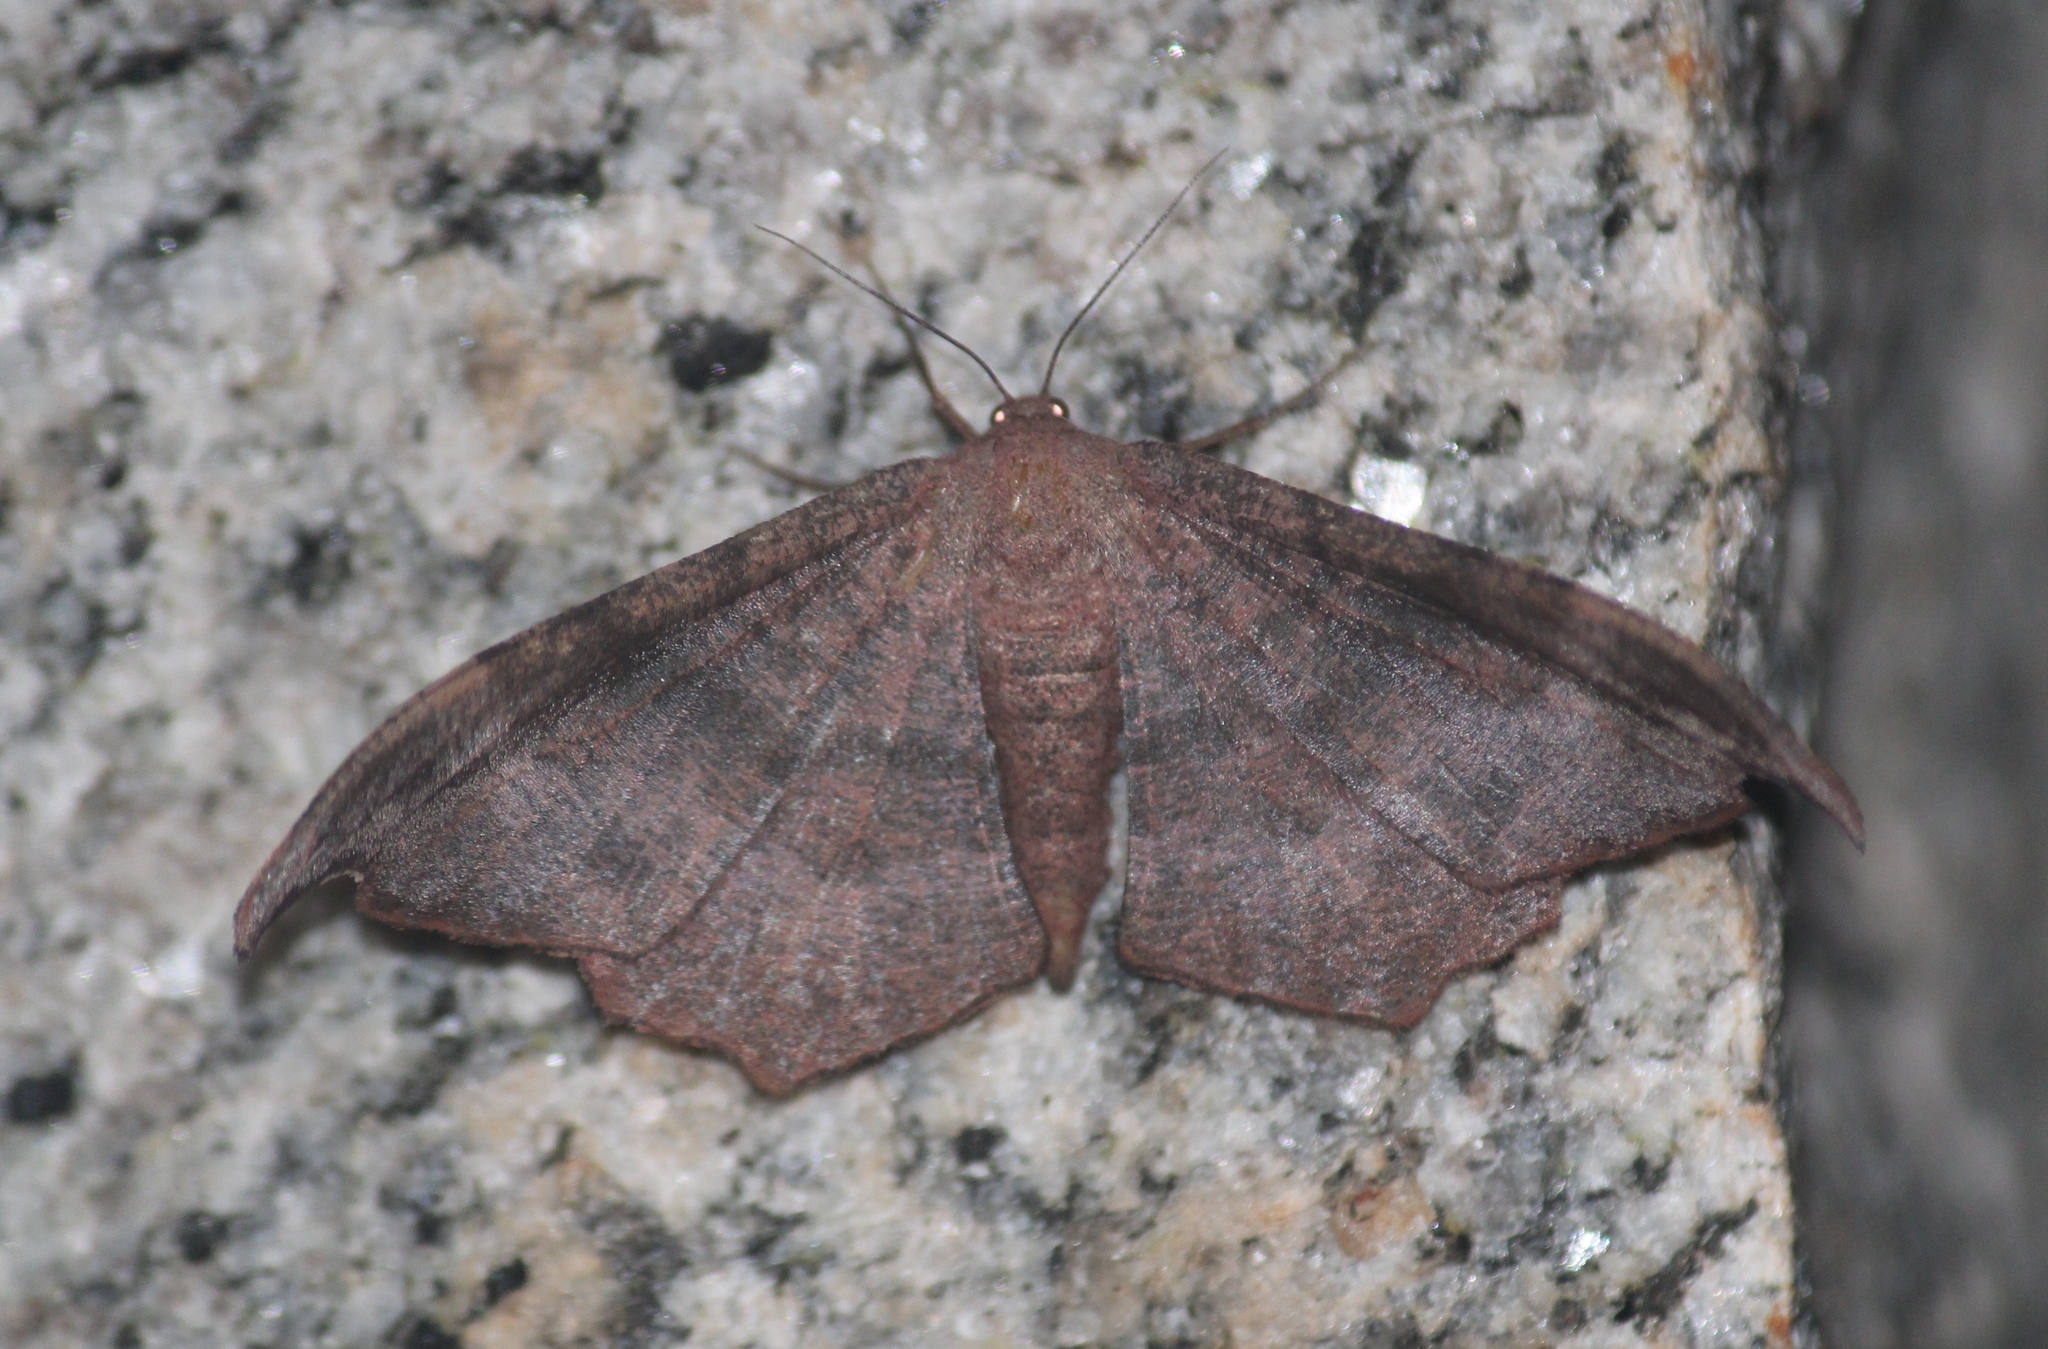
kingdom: Animalia
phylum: Arthropoda
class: Insecta
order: Lepidoptera
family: Geometridae
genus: Hyposidra
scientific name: Hyposidra talaca
